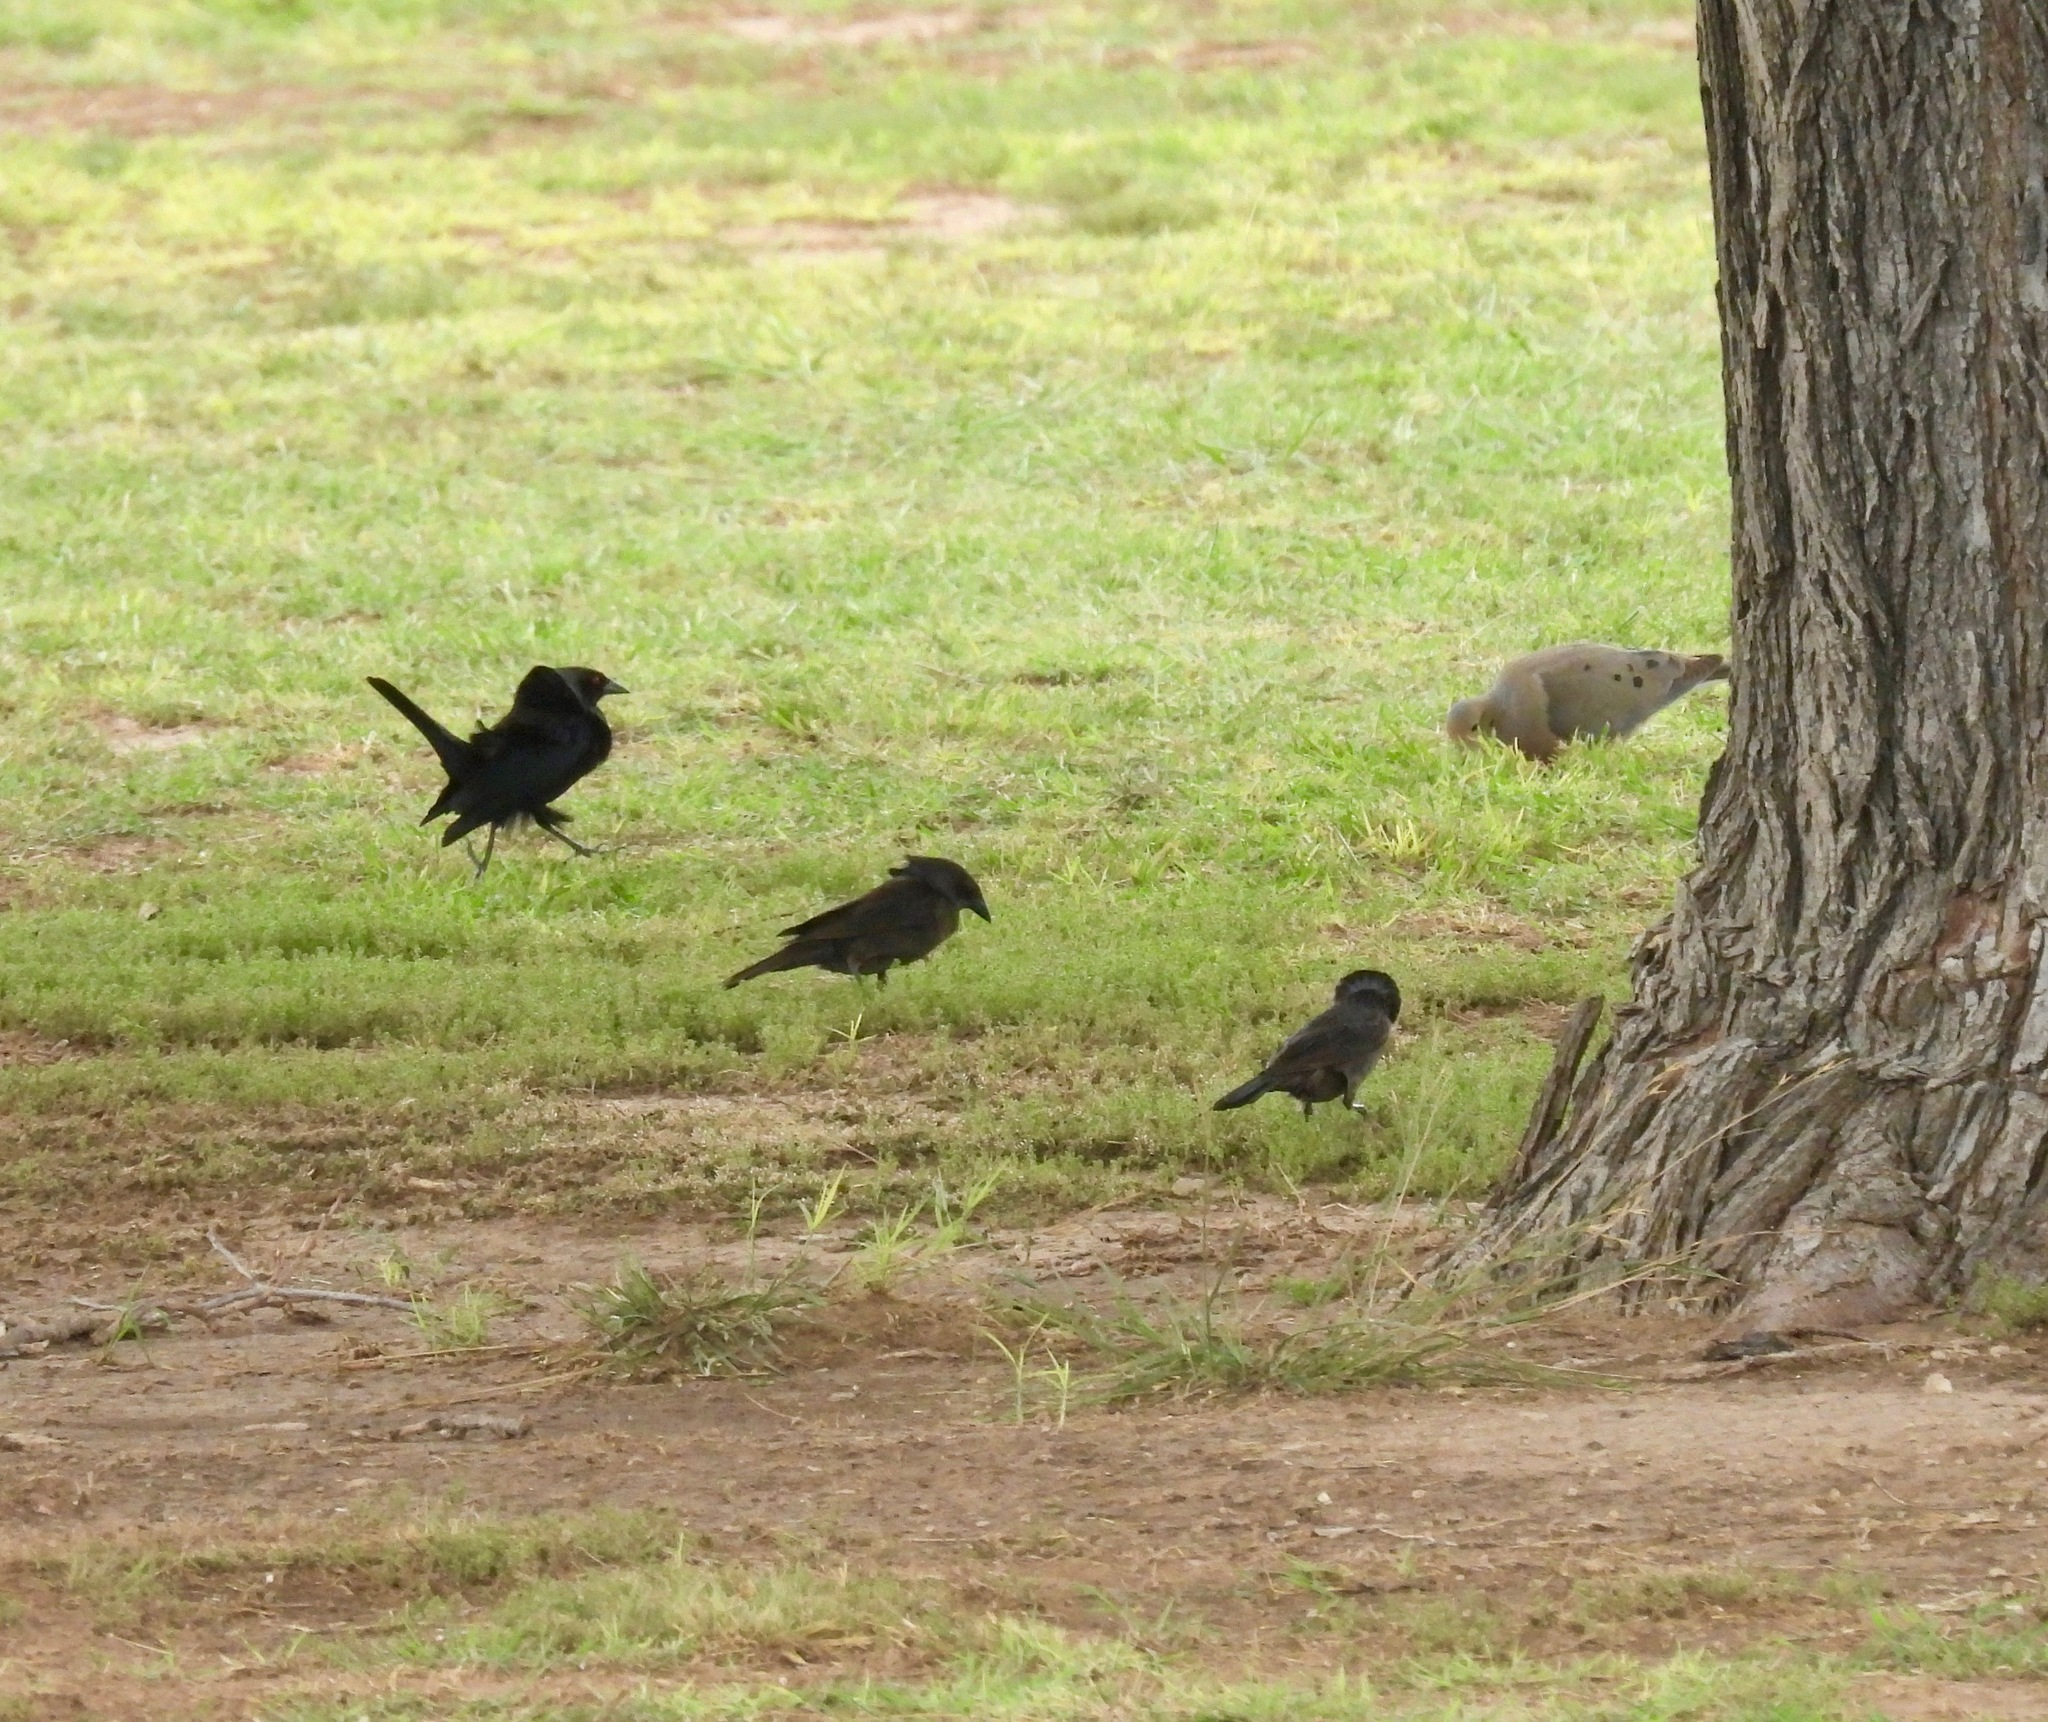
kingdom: Animalia
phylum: Chordata
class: Aves
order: Passeriformes
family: Icteridae
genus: Molothrus
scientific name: Molothrus aeneus
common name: Bronzed cowbird
